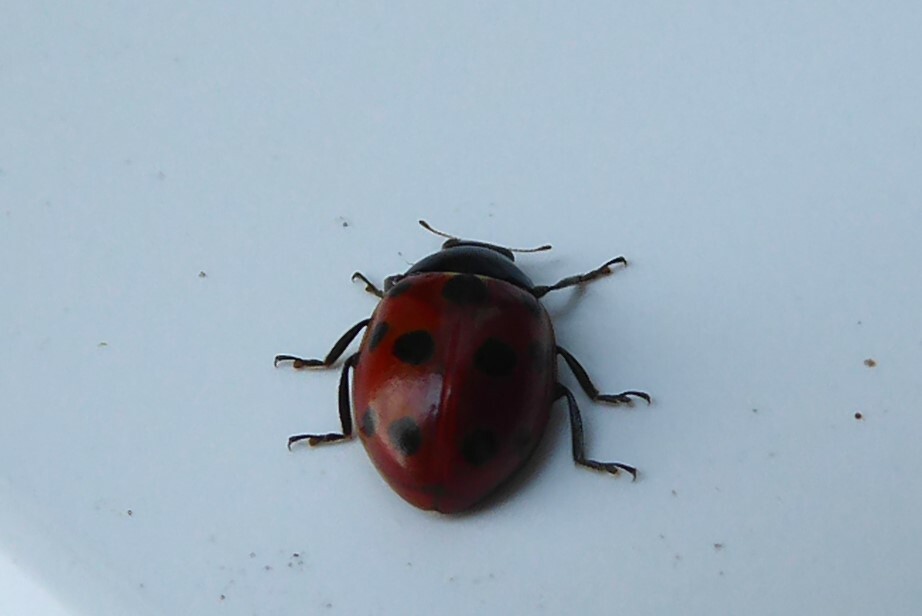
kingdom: Animalia
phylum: Arthropoda
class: Insecta
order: Coleoptera
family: Coccinellidae
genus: Coccinella
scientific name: Coccinella undecimpunctata
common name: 11-spot ladybird
